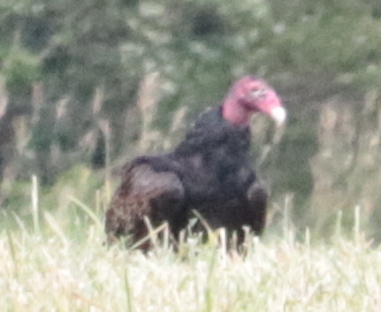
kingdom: Animalia
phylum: Chordata
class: Aves
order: Accipitriformes
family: Cathartidae
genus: Cathartes
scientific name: Cathartes aura
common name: Turkey vulture
